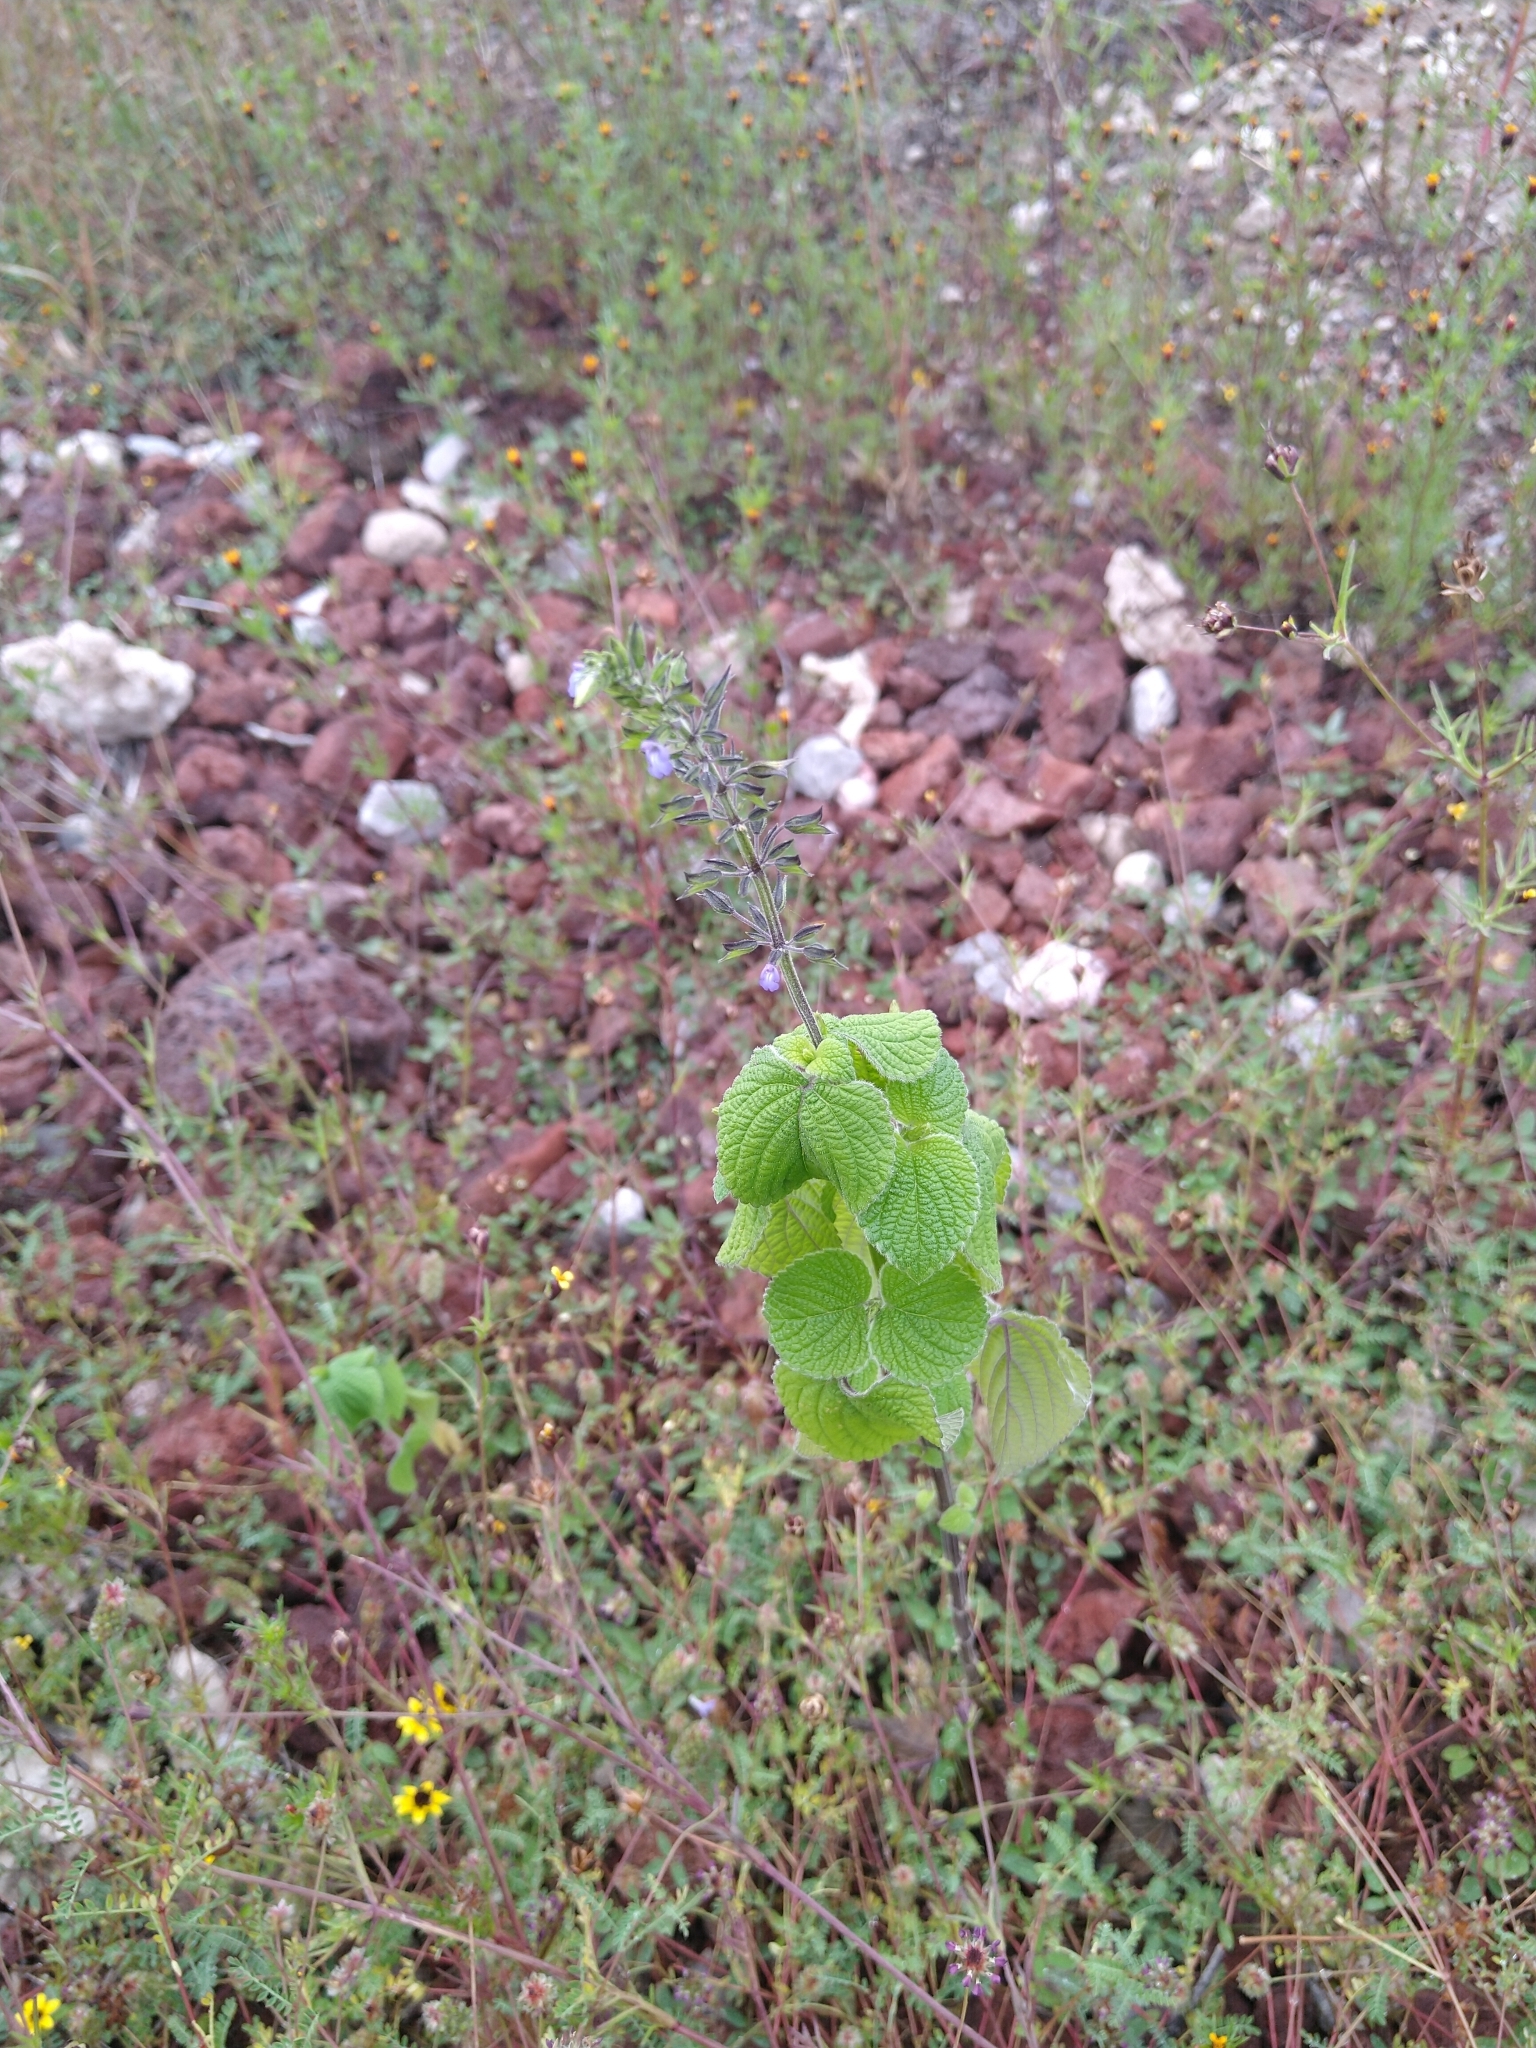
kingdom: Plantae
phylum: Tracheophyta
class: Magnoliopsida
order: Lamiales
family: Lamiaceae
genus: Salvia
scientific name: Salvia tiliifolia
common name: Lindenleaf sage
